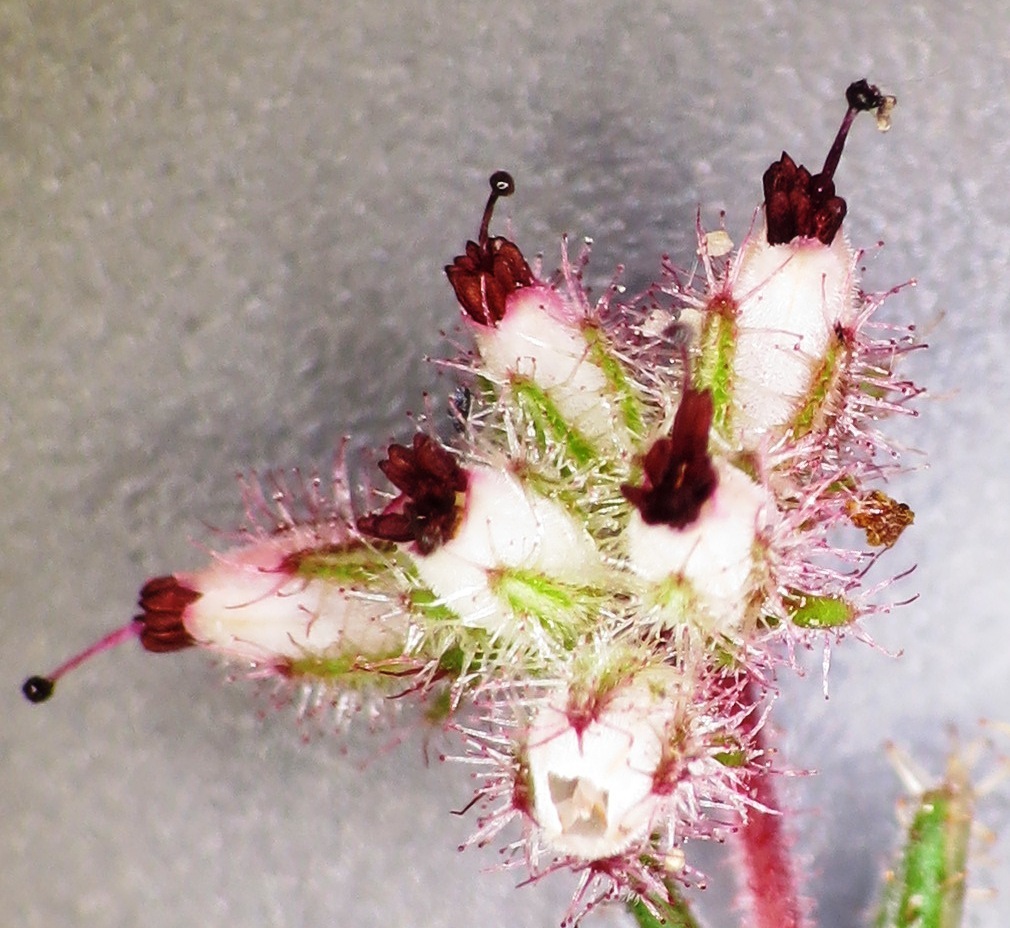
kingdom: Plantae
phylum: Tracheophyta
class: Magnoliopsida
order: Ericales
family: Ericaceae
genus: Erica
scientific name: Erica arachnocalyx
